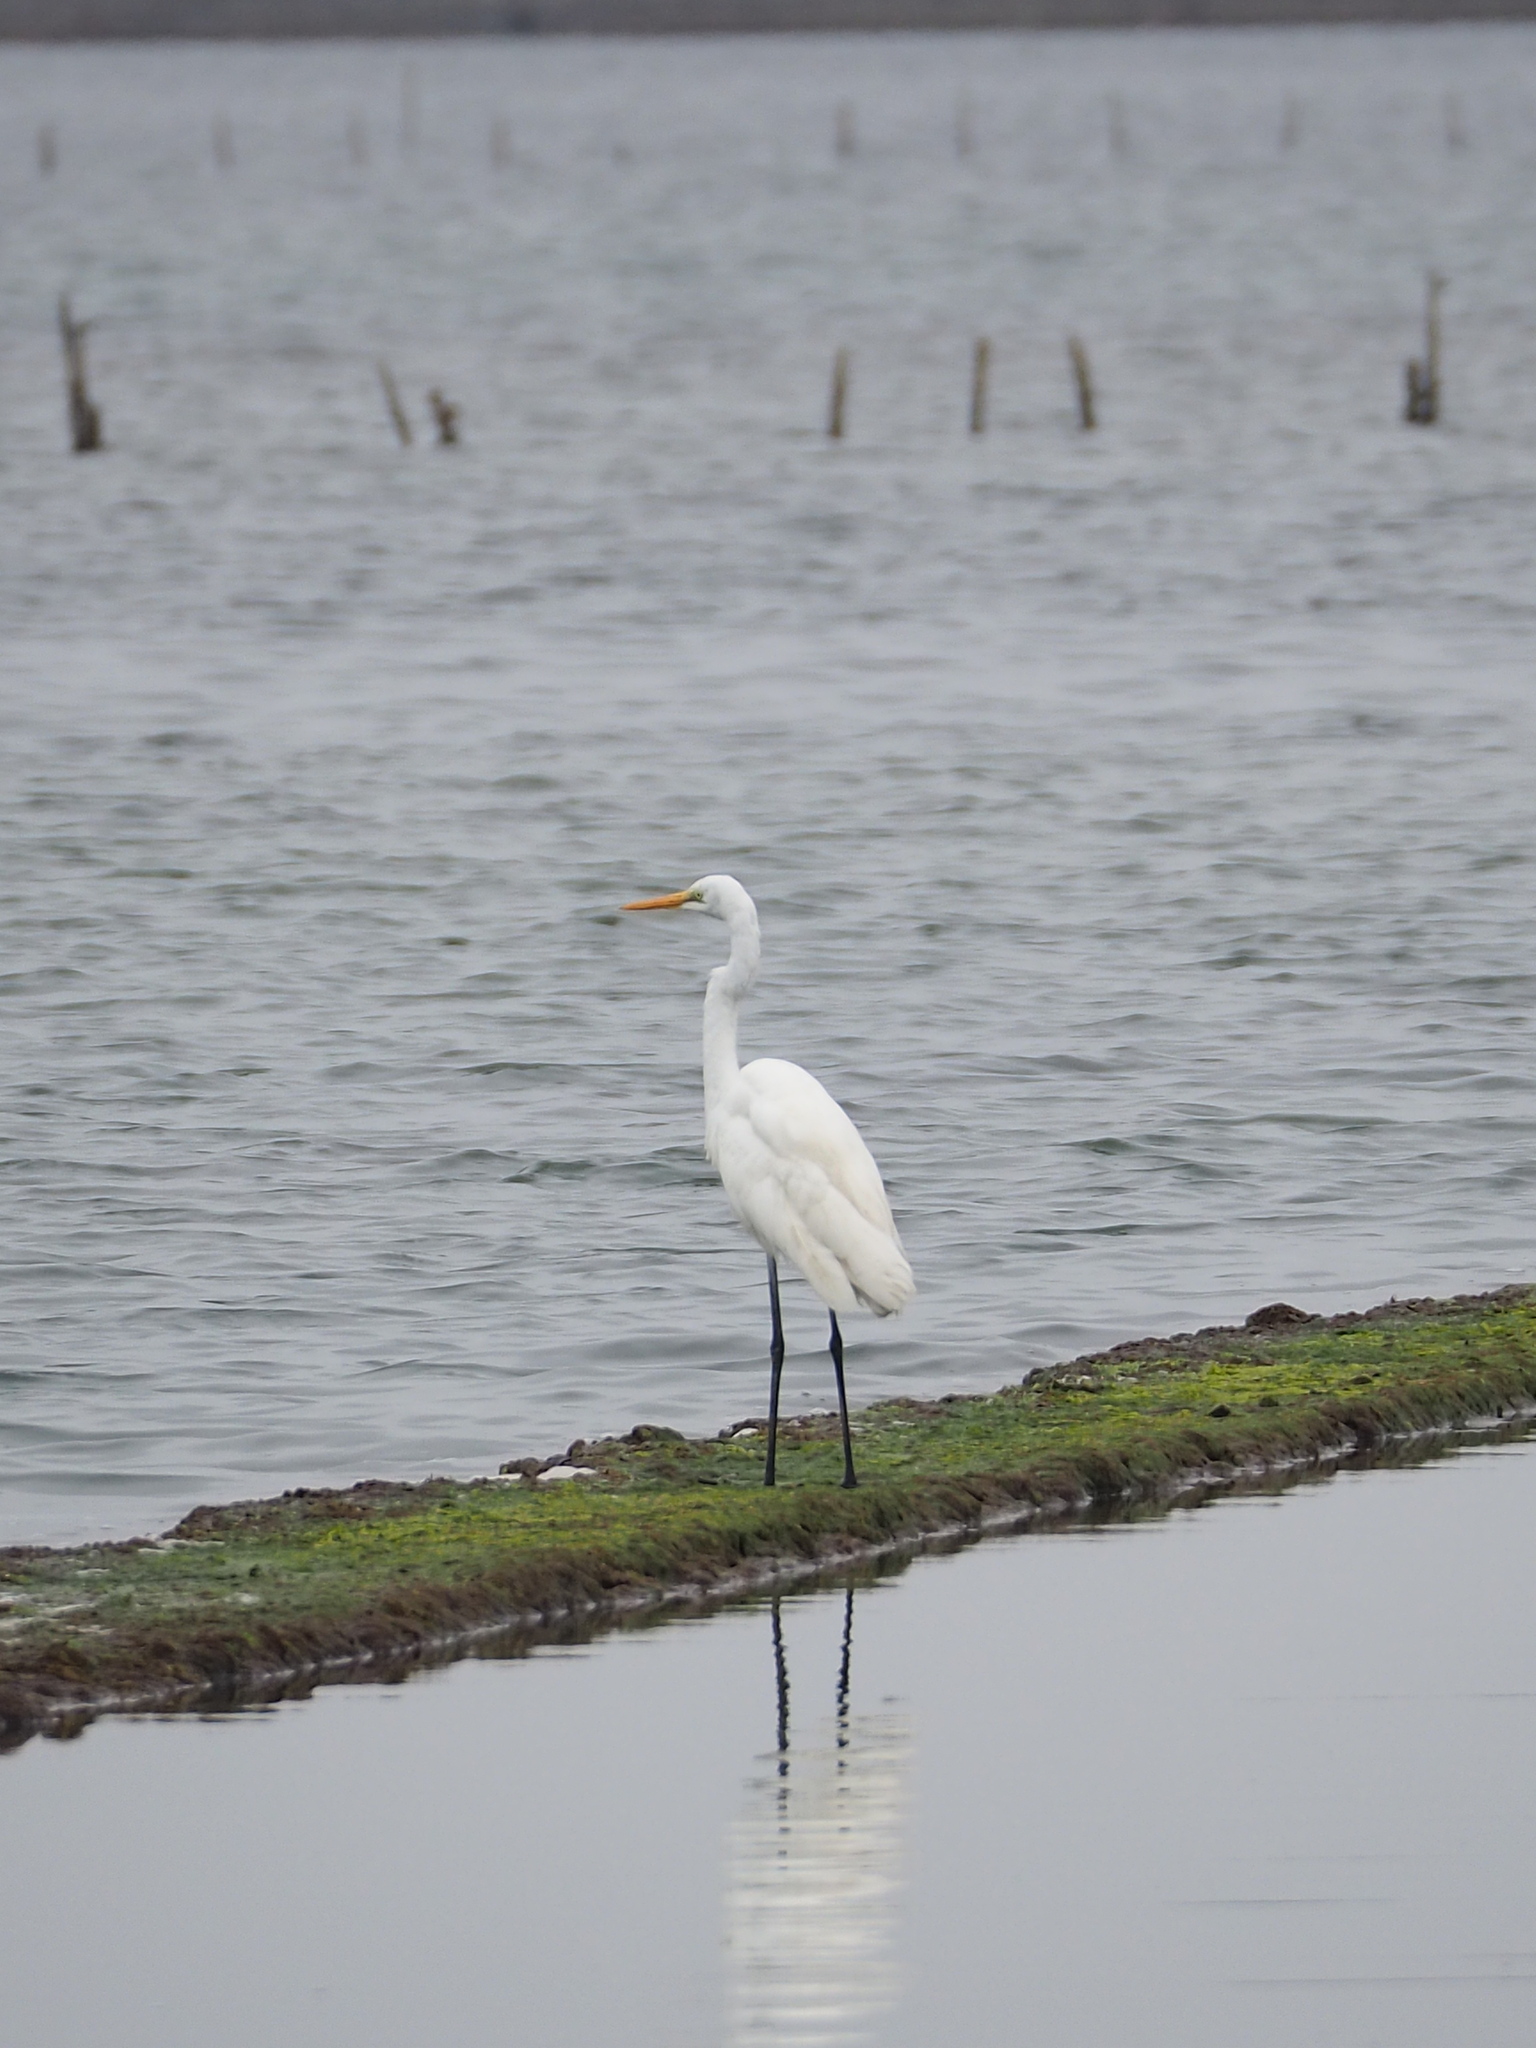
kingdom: Animalia
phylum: Chordata
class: Aves
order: Pelecaniformes
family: Ardeidae
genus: Ardea
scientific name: Ardea alba
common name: Great egret
